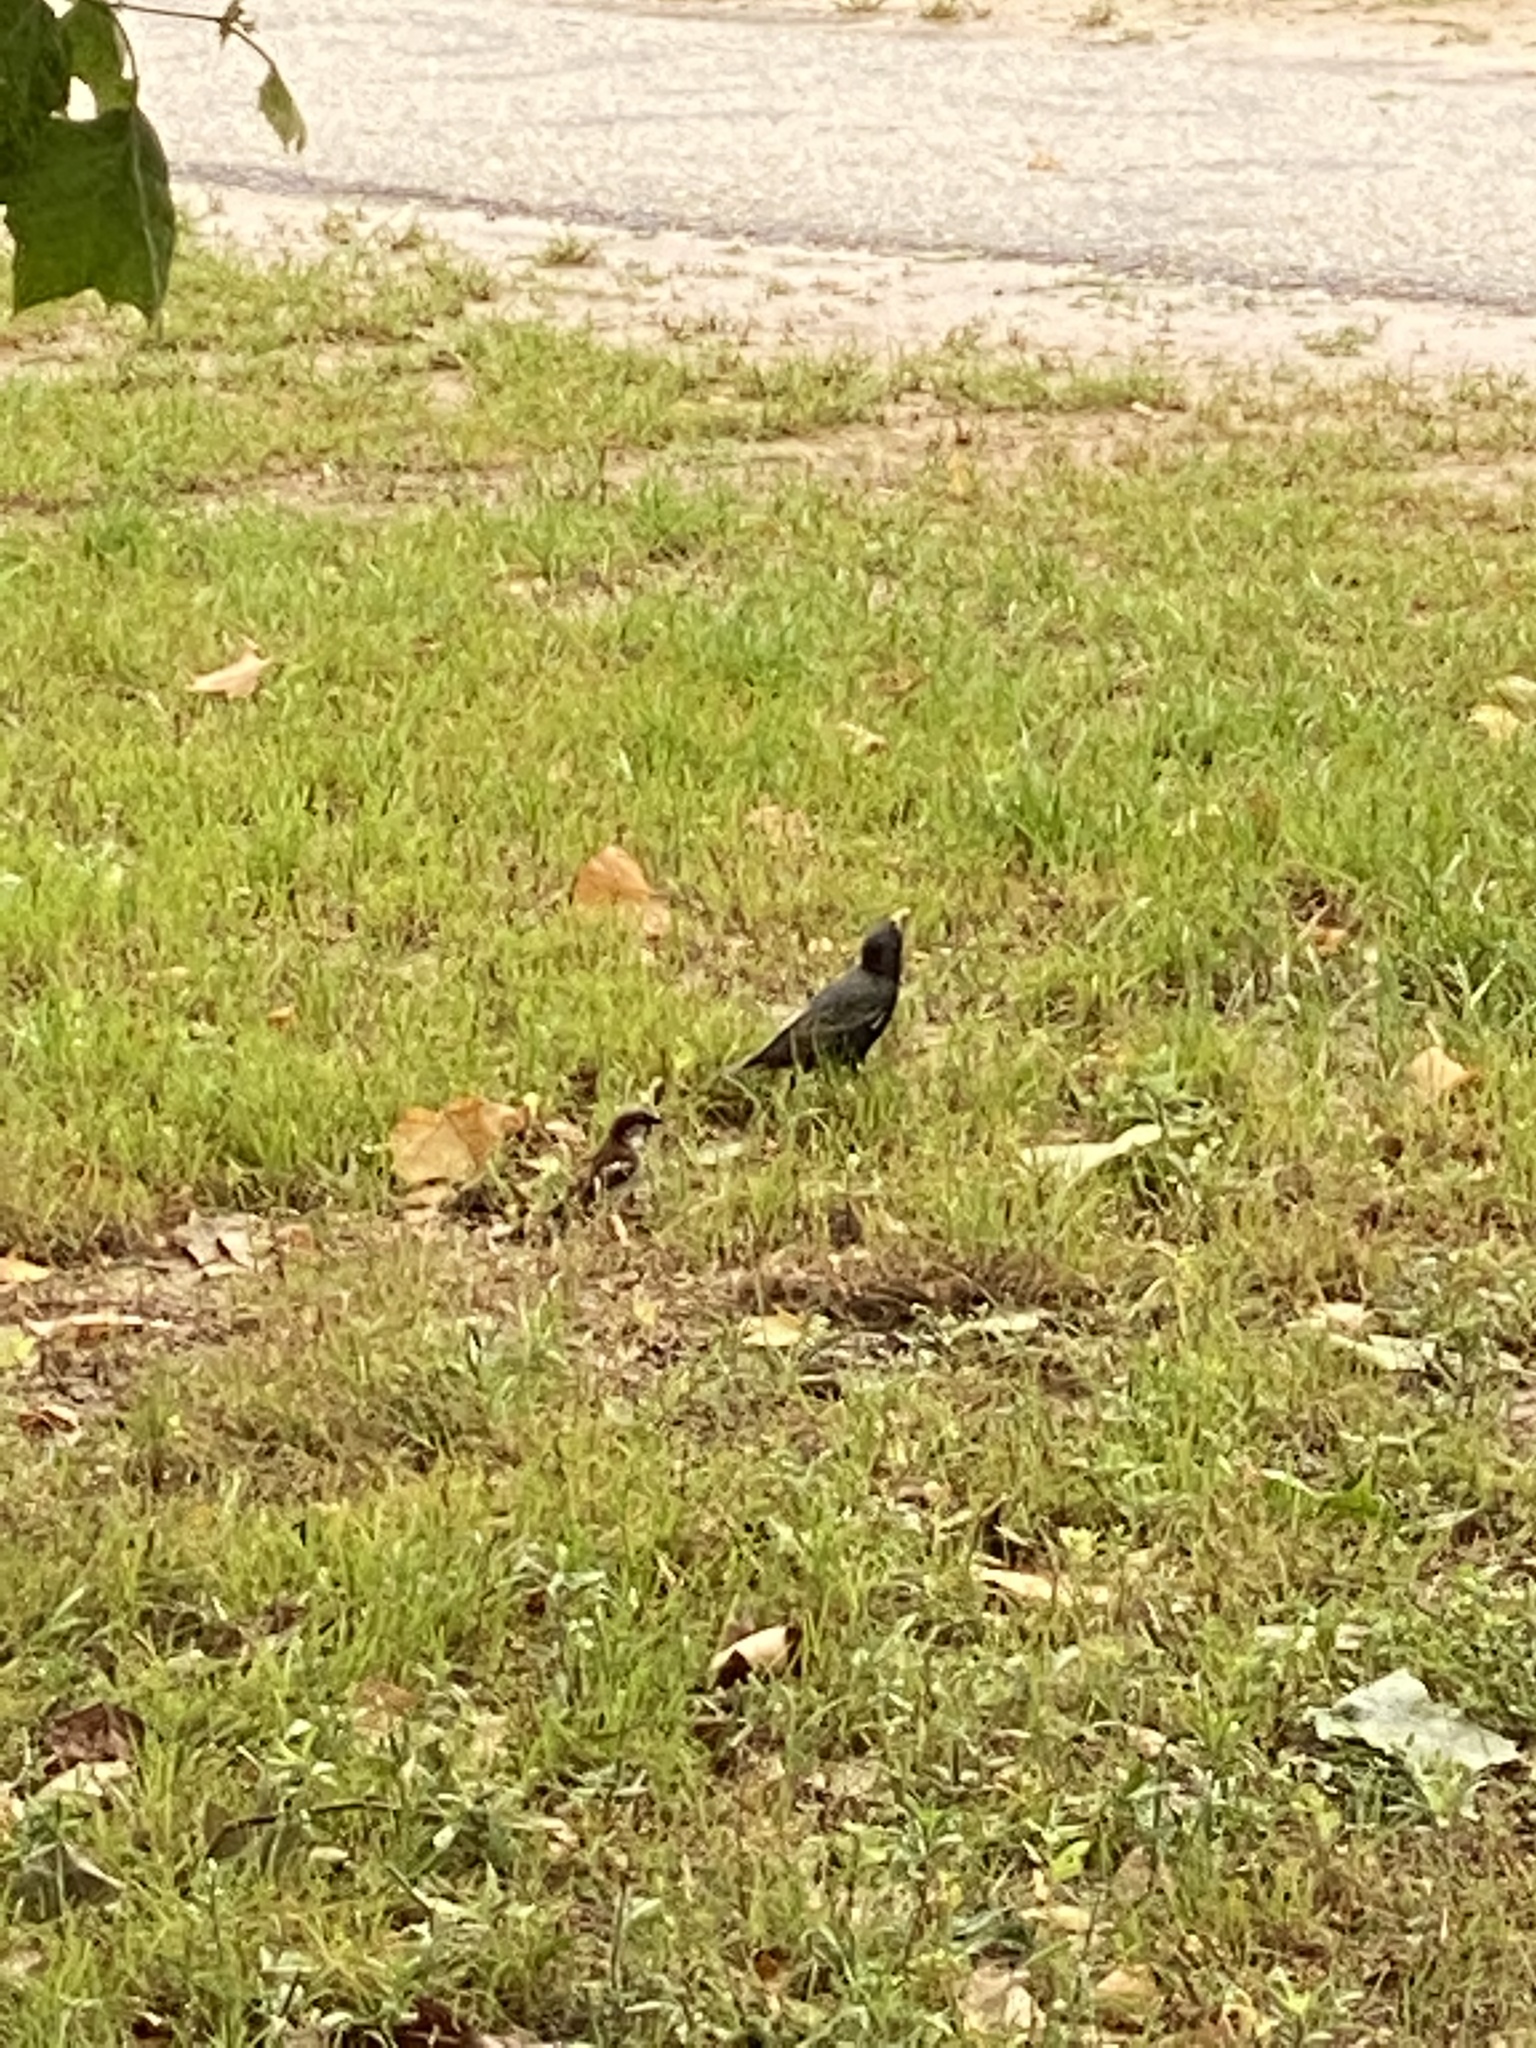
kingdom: Animalia
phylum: Chordata
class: Aves
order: Passeriformes
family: Sturnidae
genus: Sturnus
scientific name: Sturnus vulgaris
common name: Common starling
